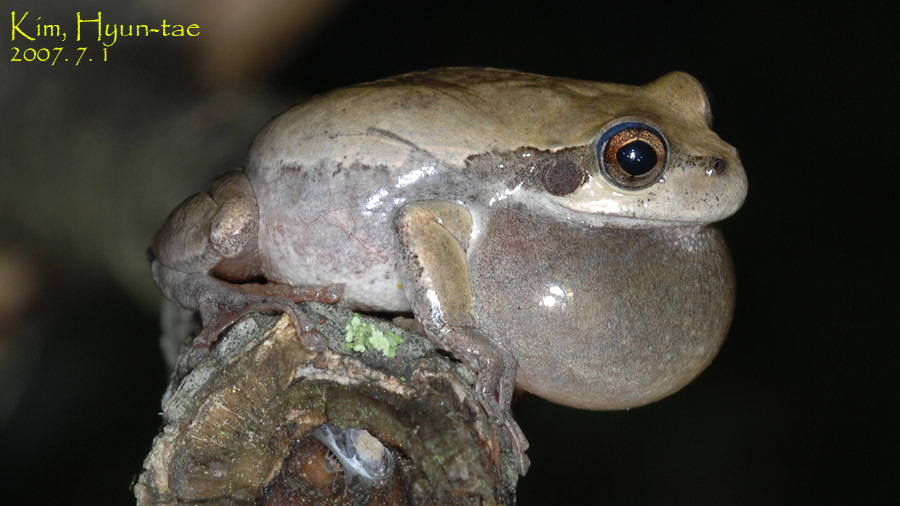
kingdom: Animalia
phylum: Chordata
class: Amphibia
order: Anura
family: Hylidae
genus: Dryophytes
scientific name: Dryophytes japonicus
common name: Japanese treefrog
